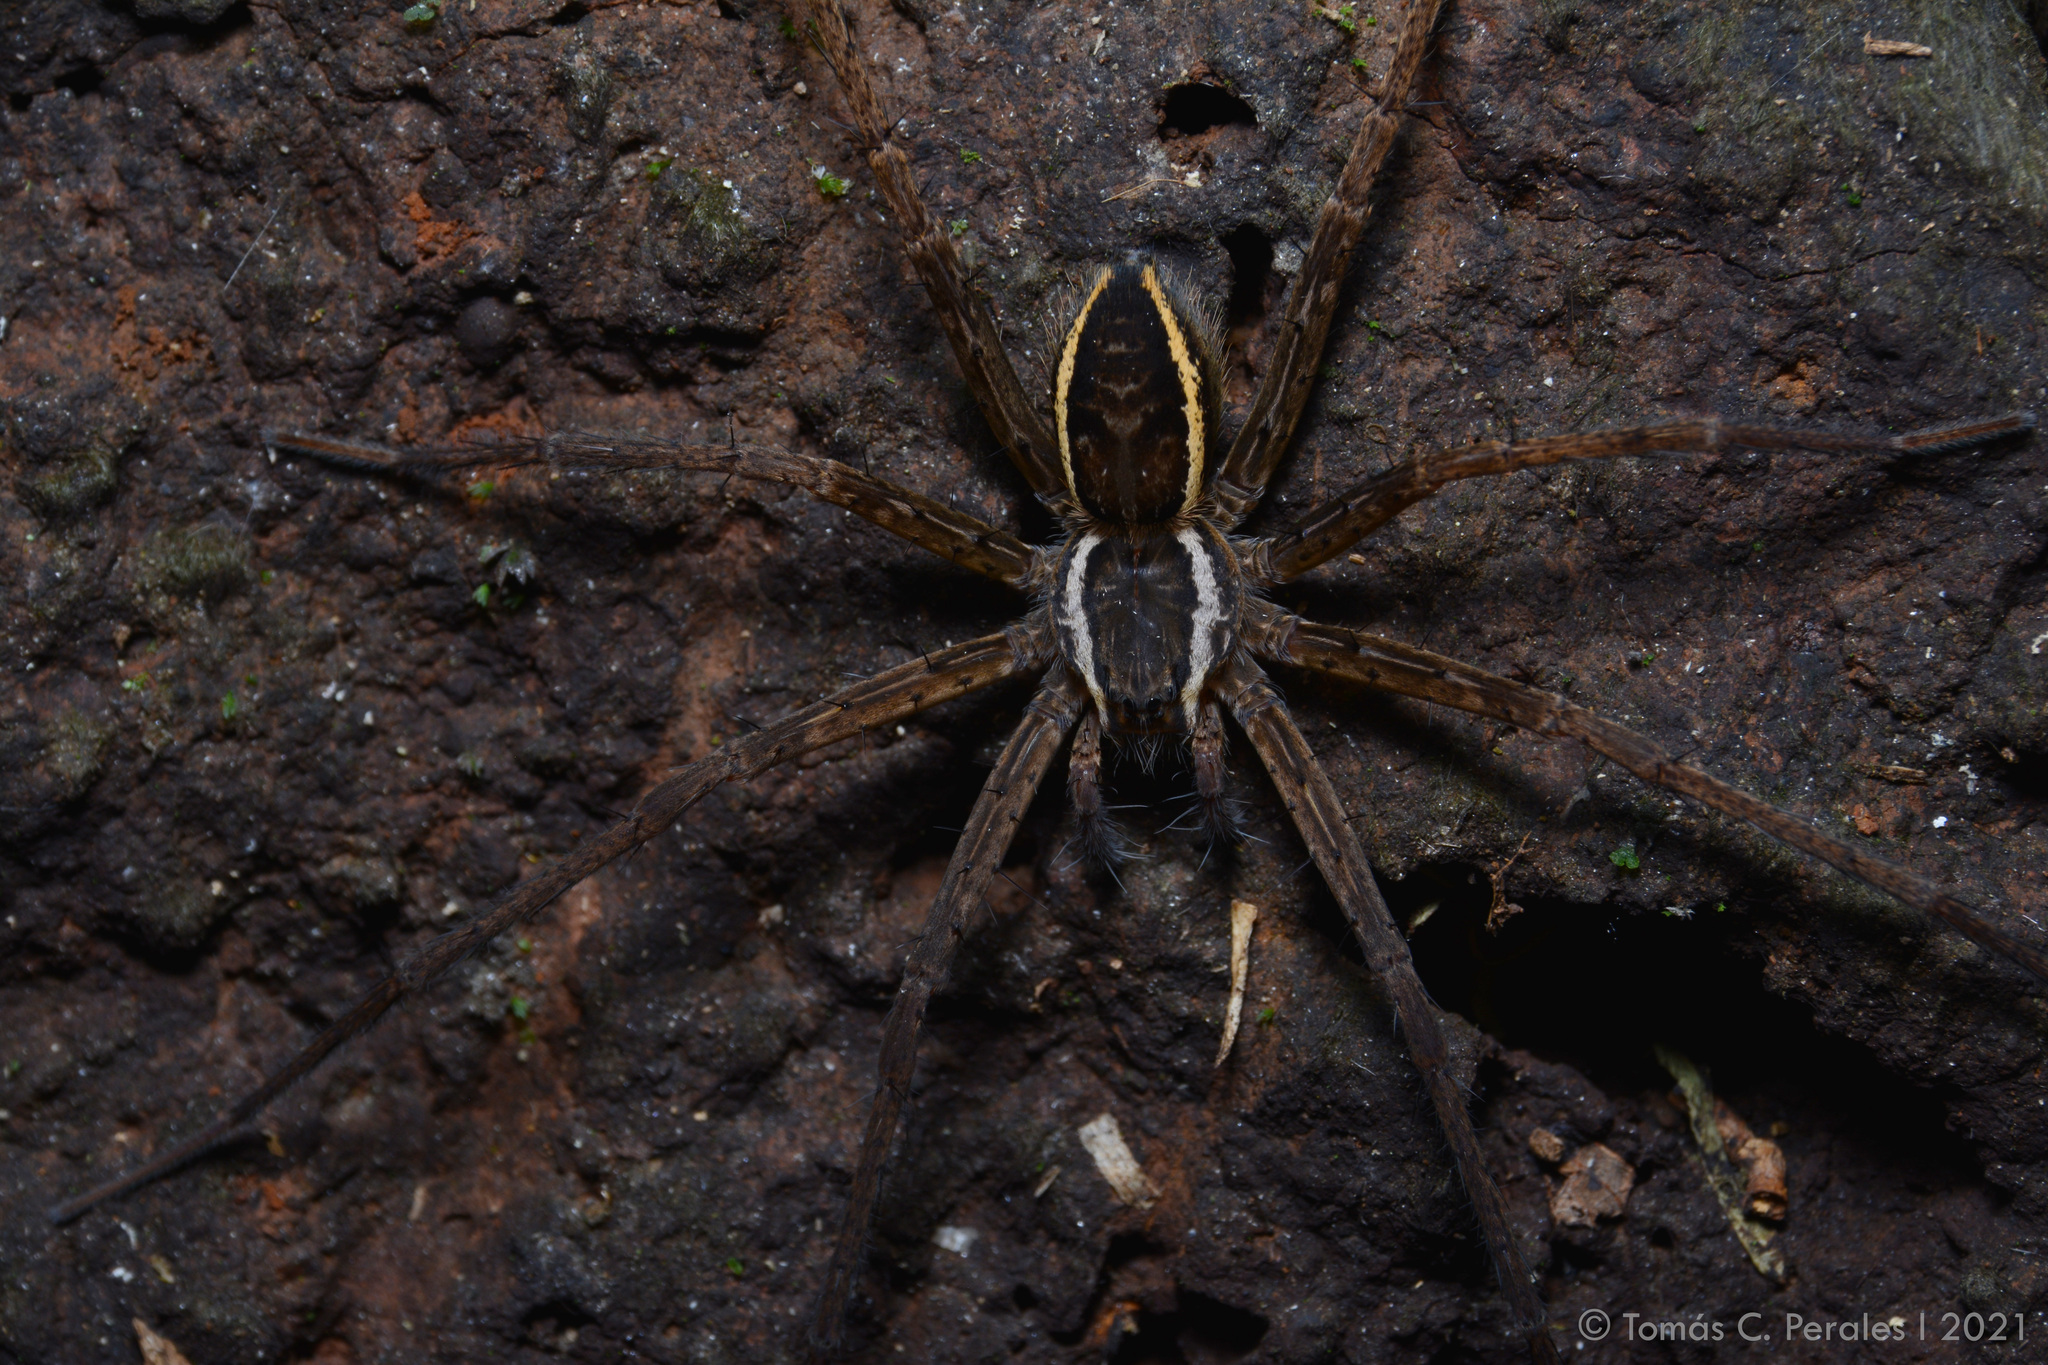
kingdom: Animalia
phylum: Arthropoda
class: Arachnida
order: Araneae
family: Trechaleidae
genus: Dossenus
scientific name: Dossenus marginatus
